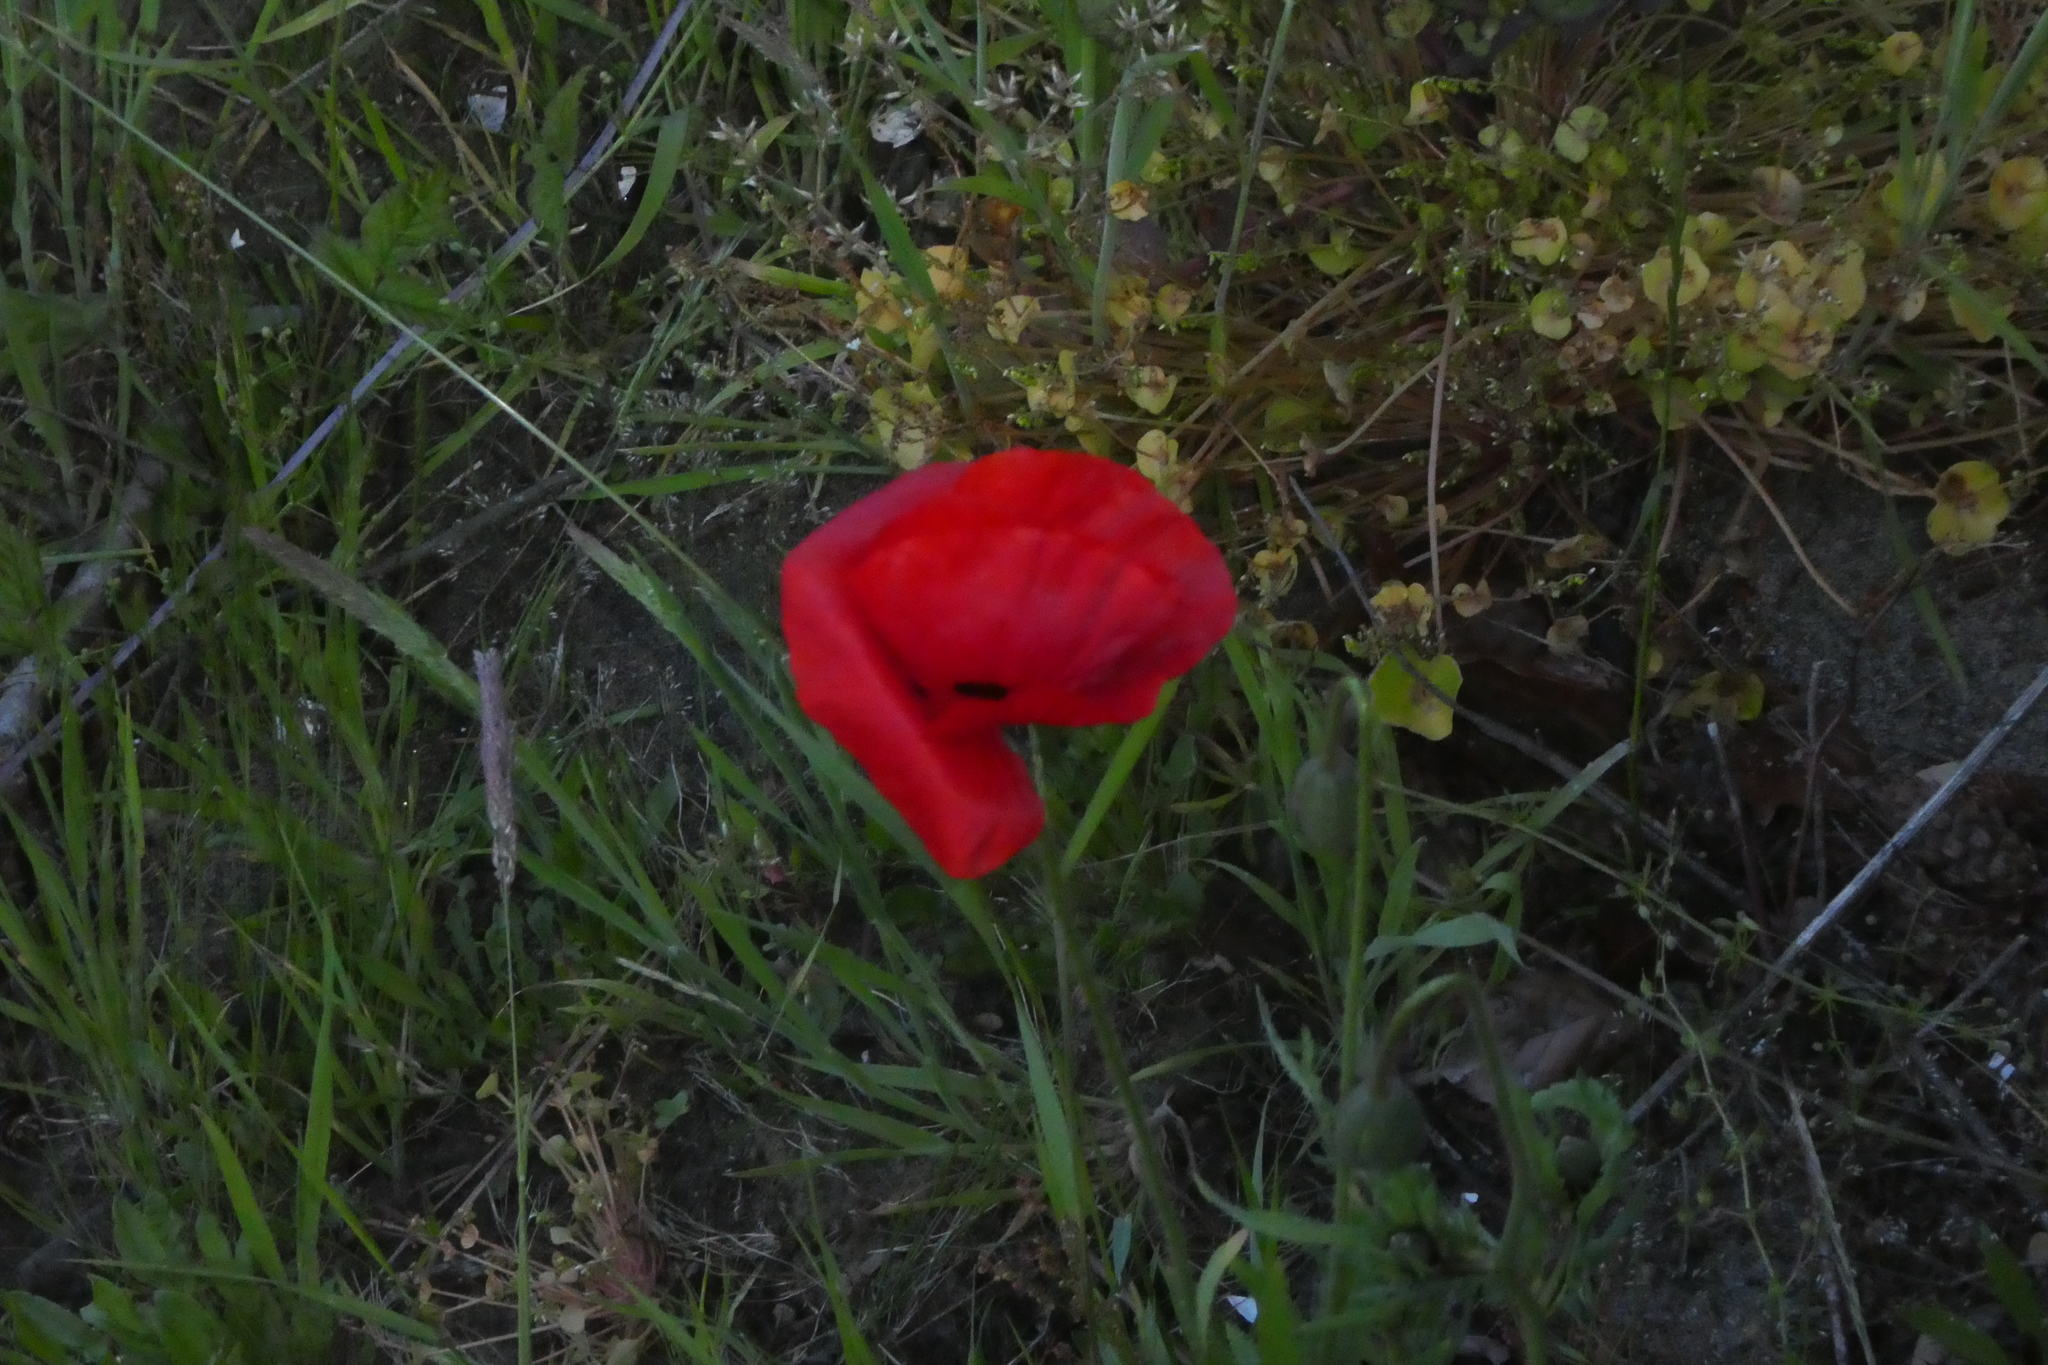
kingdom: Plantae
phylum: Tracheophyta
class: Magnoliopsida
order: Ranunculales
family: Papaveraceae
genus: Papaver
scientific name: Papaver rhoeas
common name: Corn poppy
